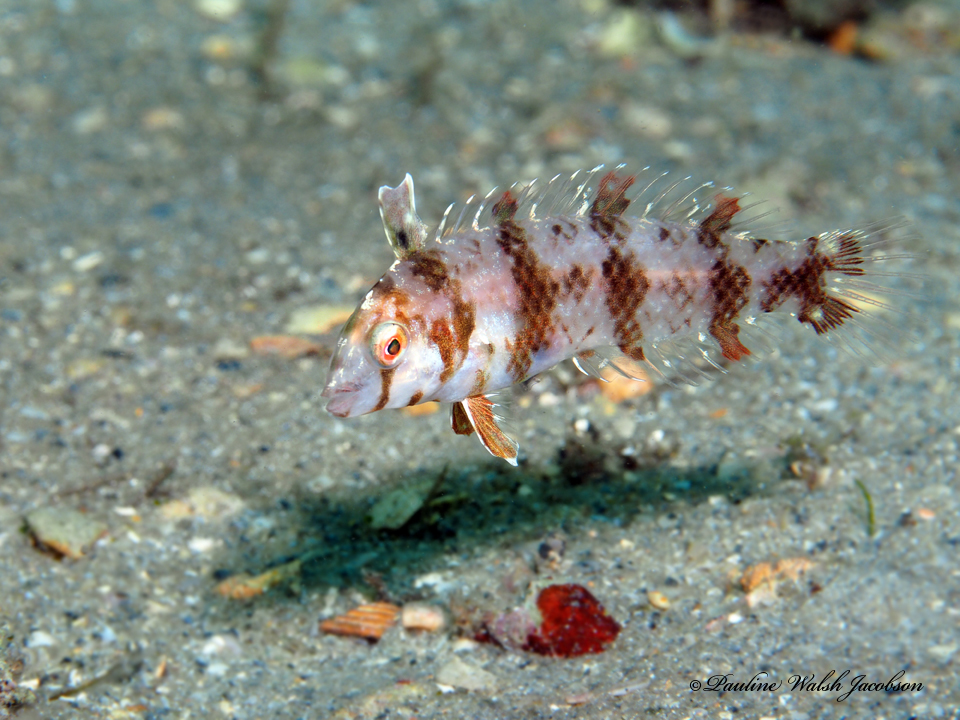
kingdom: Animalia
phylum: Chordata
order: Perciformes
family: Labridae
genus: Xyrichtys
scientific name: Xyrichtys splendens
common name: Green razorfish
